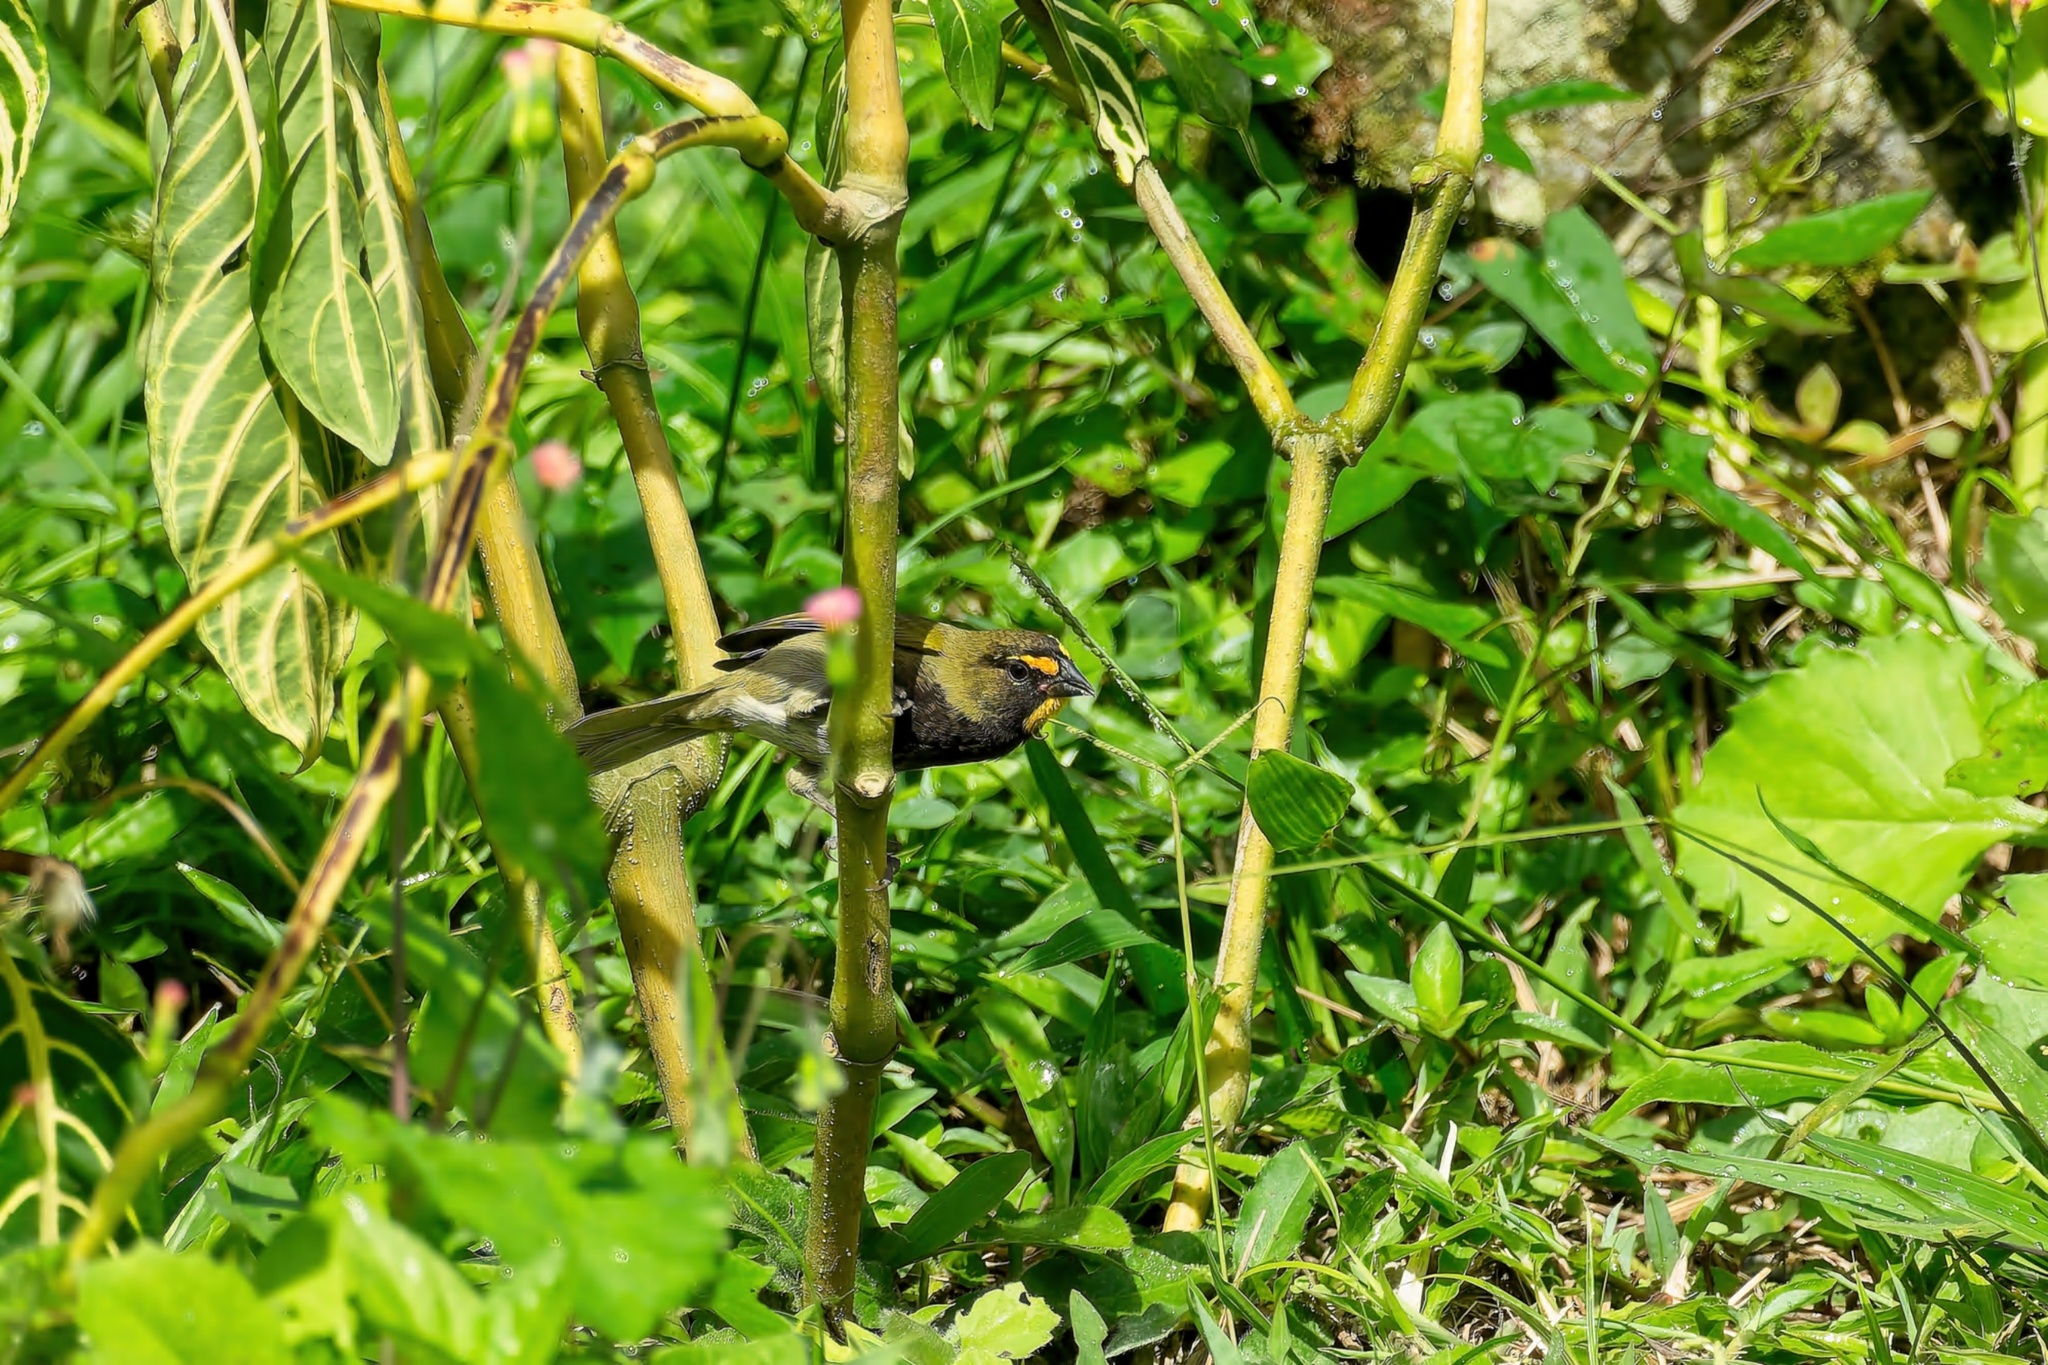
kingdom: Animalia
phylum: Chordata
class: Aves
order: Passeriformes
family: Thraupidae
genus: Tiaris
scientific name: Tiaris olivaceus
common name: Yellow-faced grassquit
